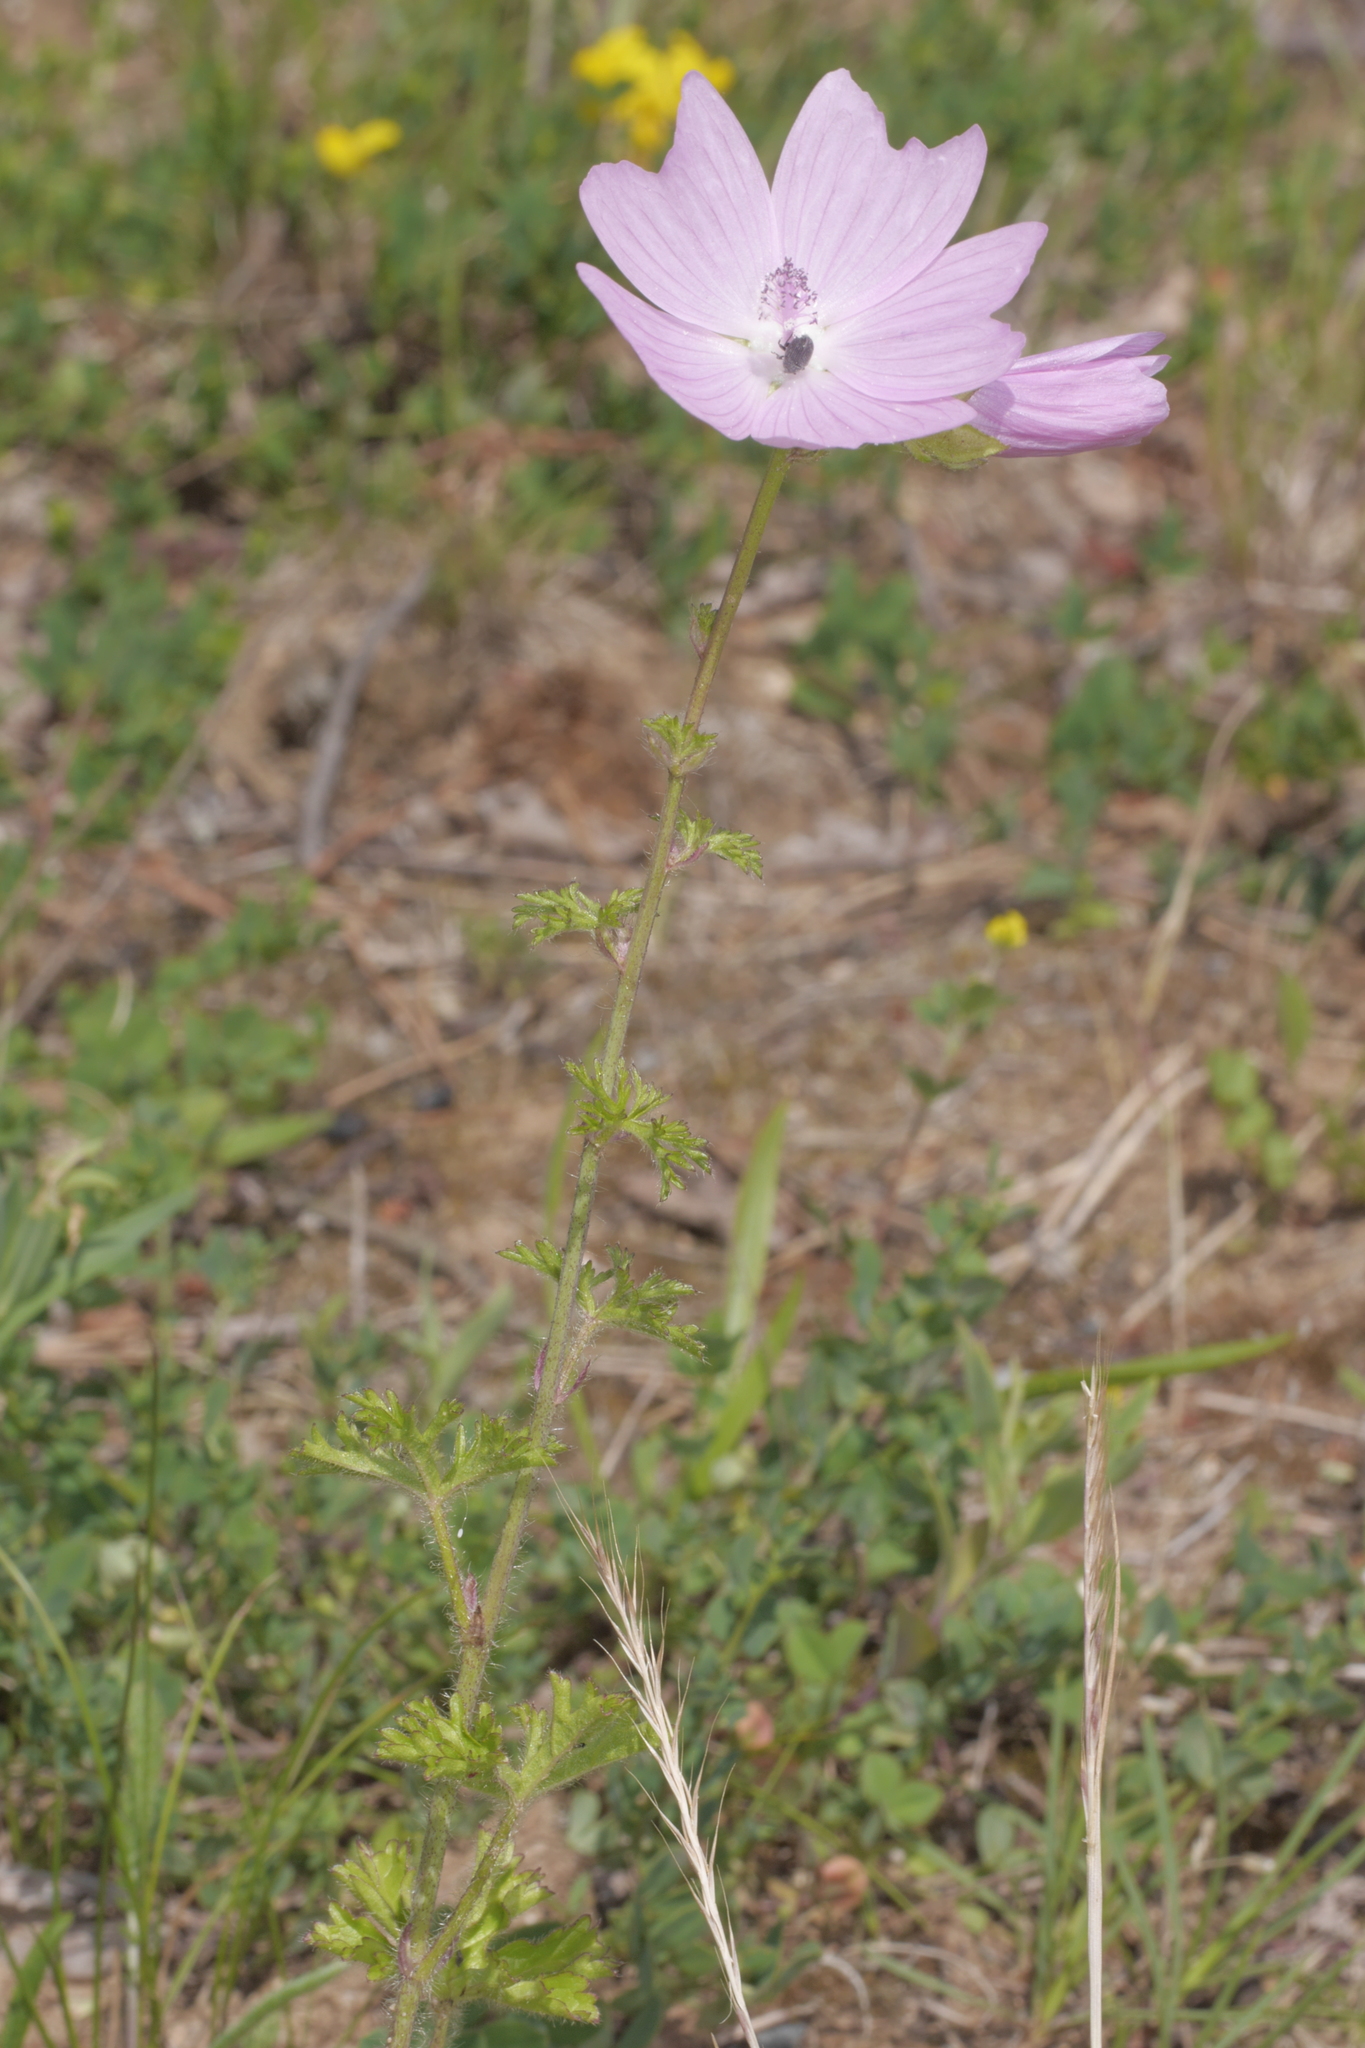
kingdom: Plantae
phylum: Tracheophyta
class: Magnoliopsida
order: Malvales
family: Malvaceae
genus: Malva
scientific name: Malva moschata
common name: Musk mallow
